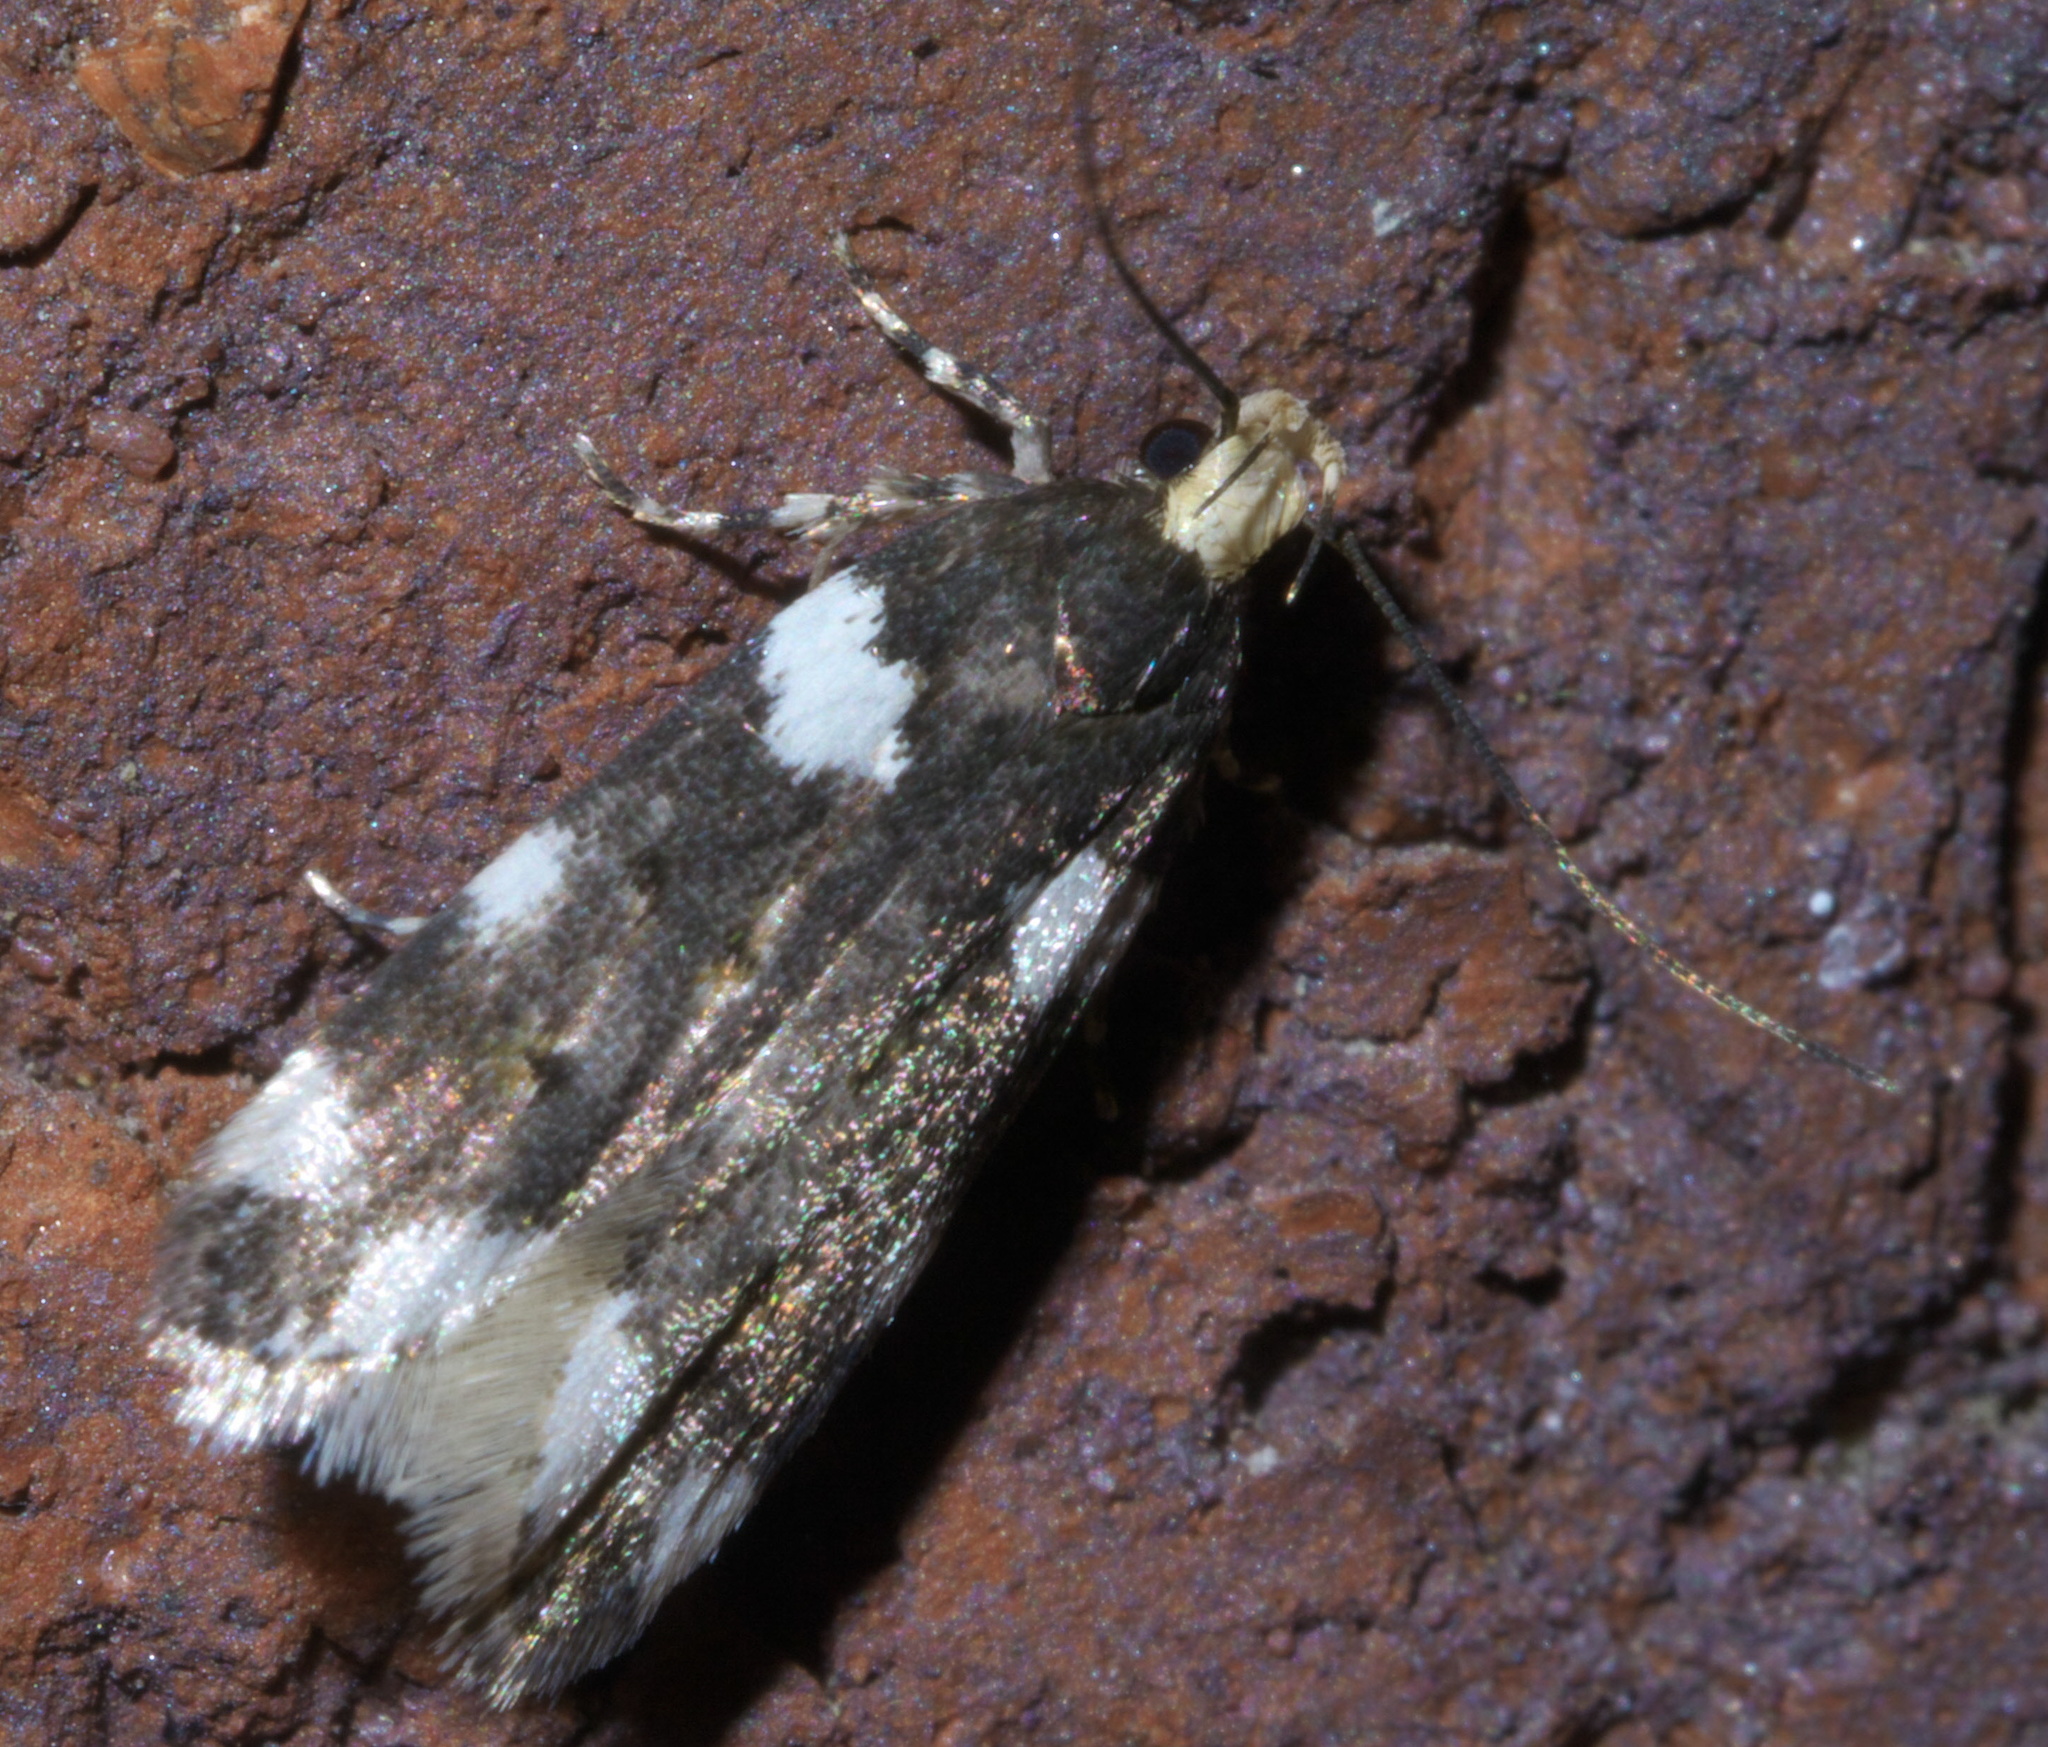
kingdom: Animalia
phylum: Arthropoda
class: Insecta
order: Lepidoptera
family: Gelechiidae
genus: Fascista
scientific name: Fascista cercerisella
